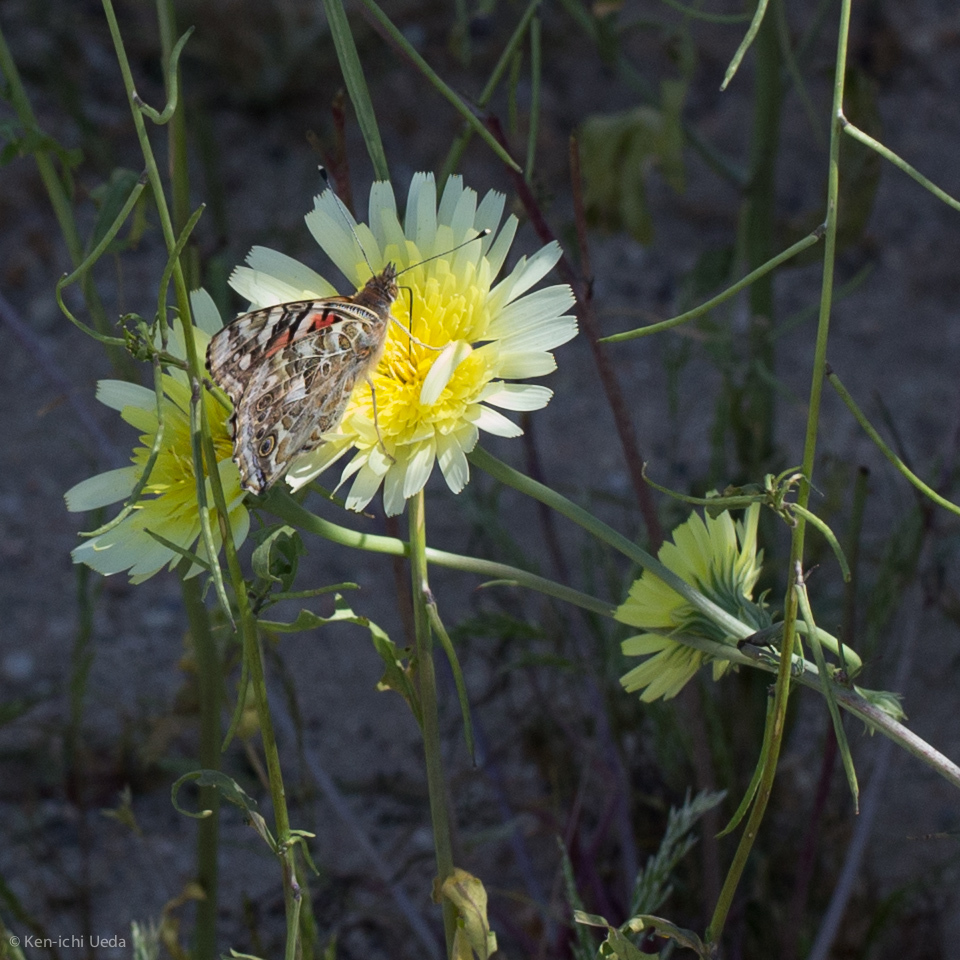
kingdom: Animalia
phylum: Arthropoda
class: Insecta
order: Lepidoptera
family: Nymphalidae
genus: Vanessa
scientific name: Vanessa cardui
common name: Painted lady
